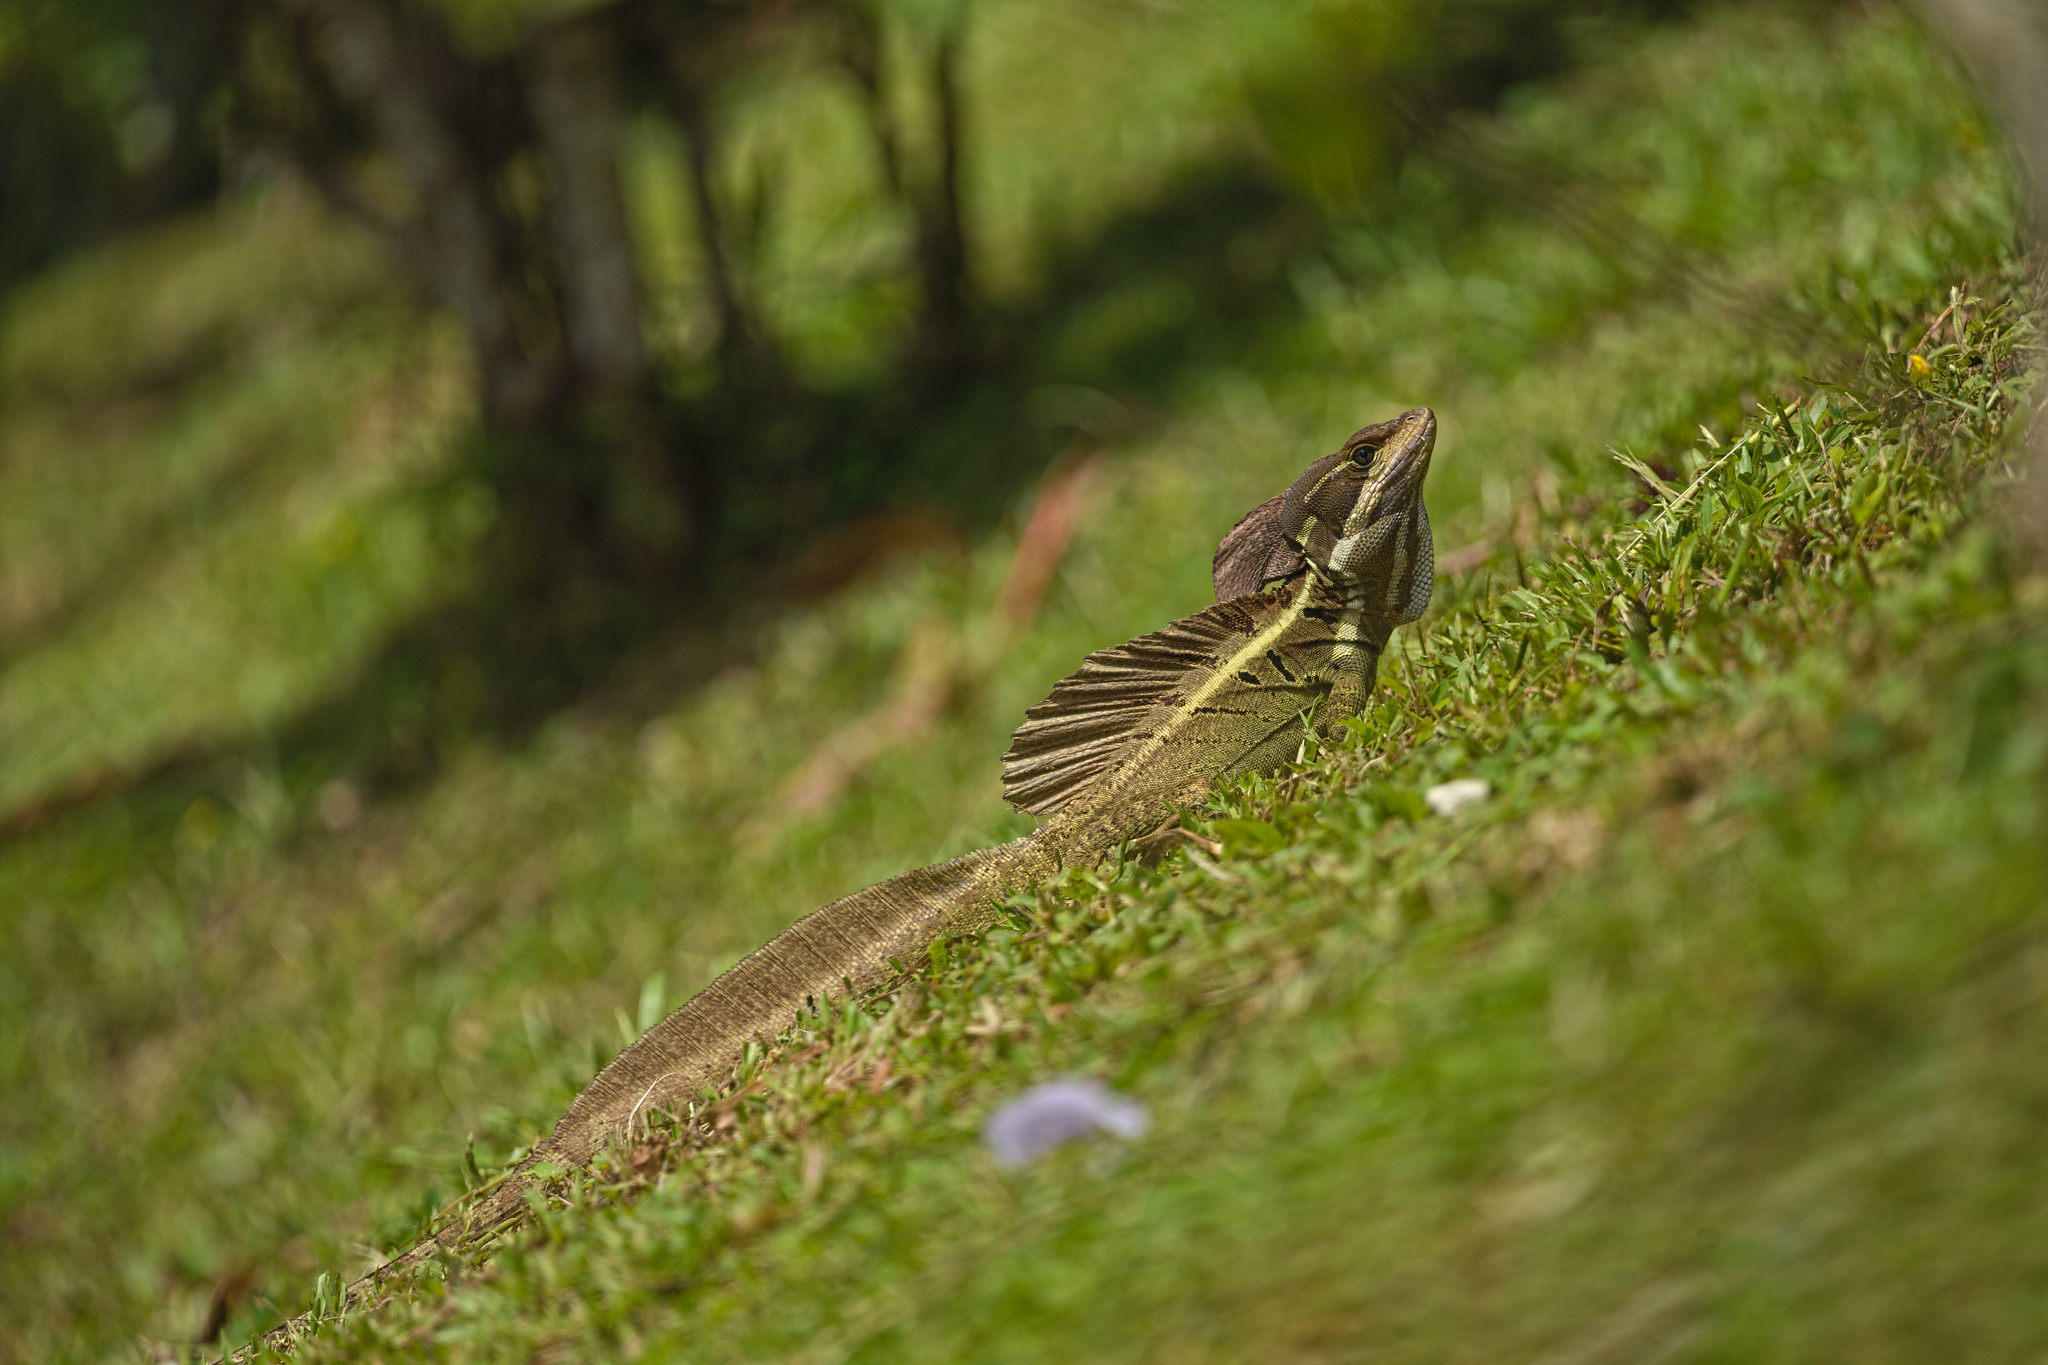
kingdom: Animalia
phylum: Chordata
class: Squamata
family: Corytophanidae
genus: Basiliscus
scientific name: Basiliscus basiliscus
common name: Common basilisk
